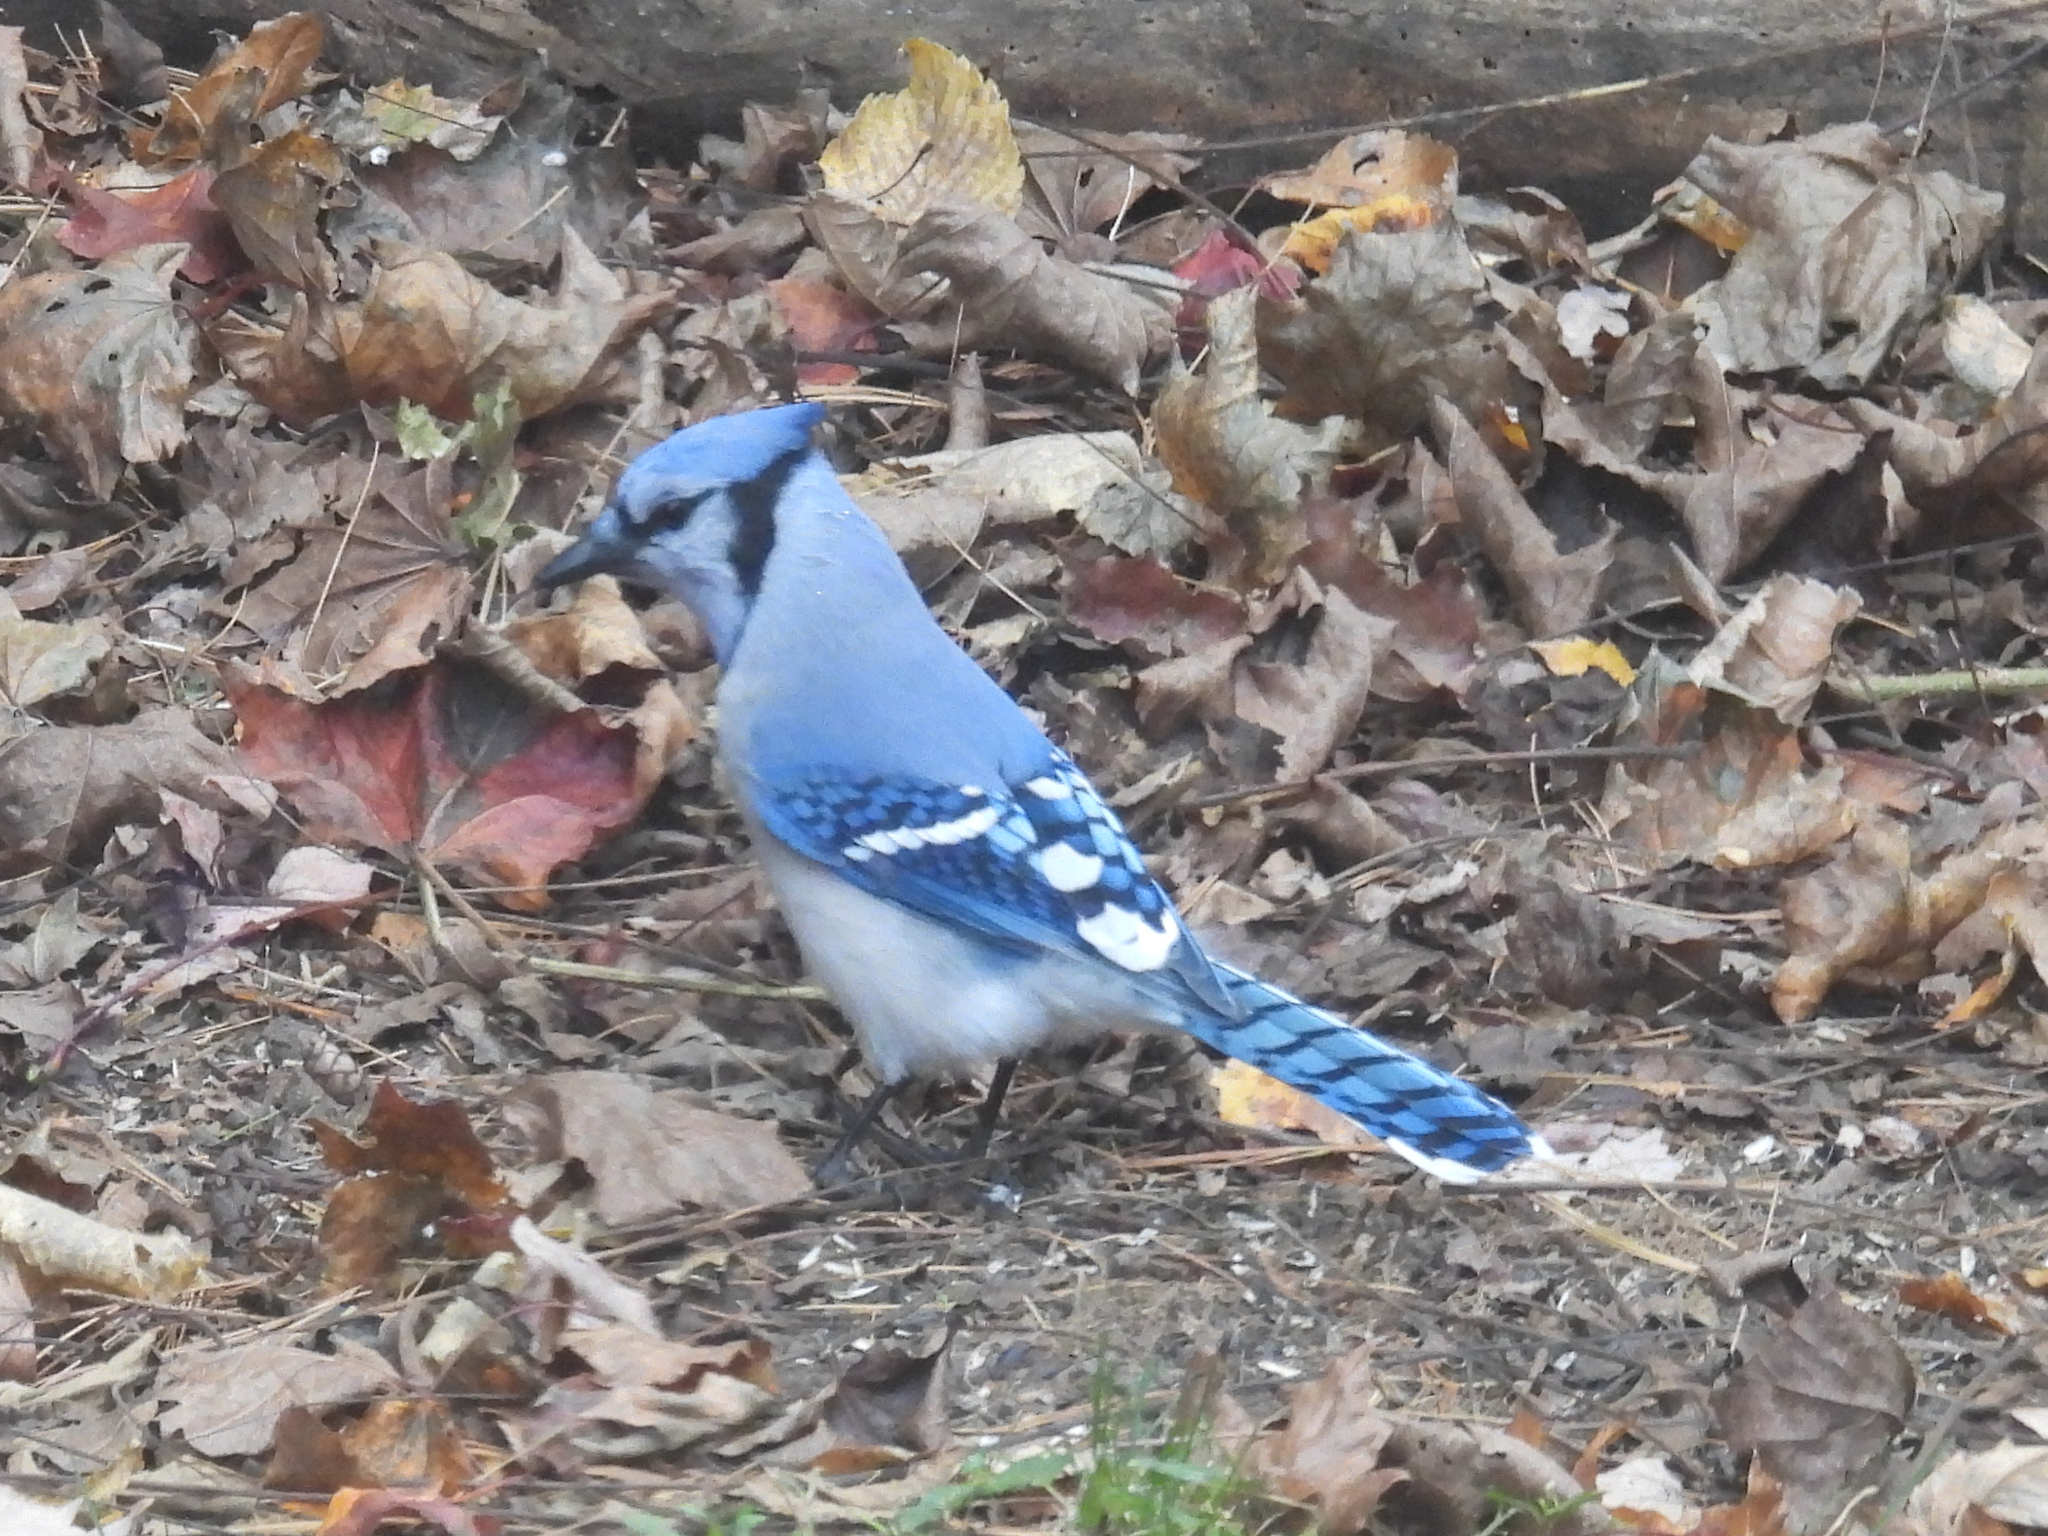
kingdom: Animalia
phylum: Chordata
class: Aves
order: Passeriformes
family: Corvidae
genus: Cyanocitta
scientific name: Cyanocitta cristata
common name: Blue jay
